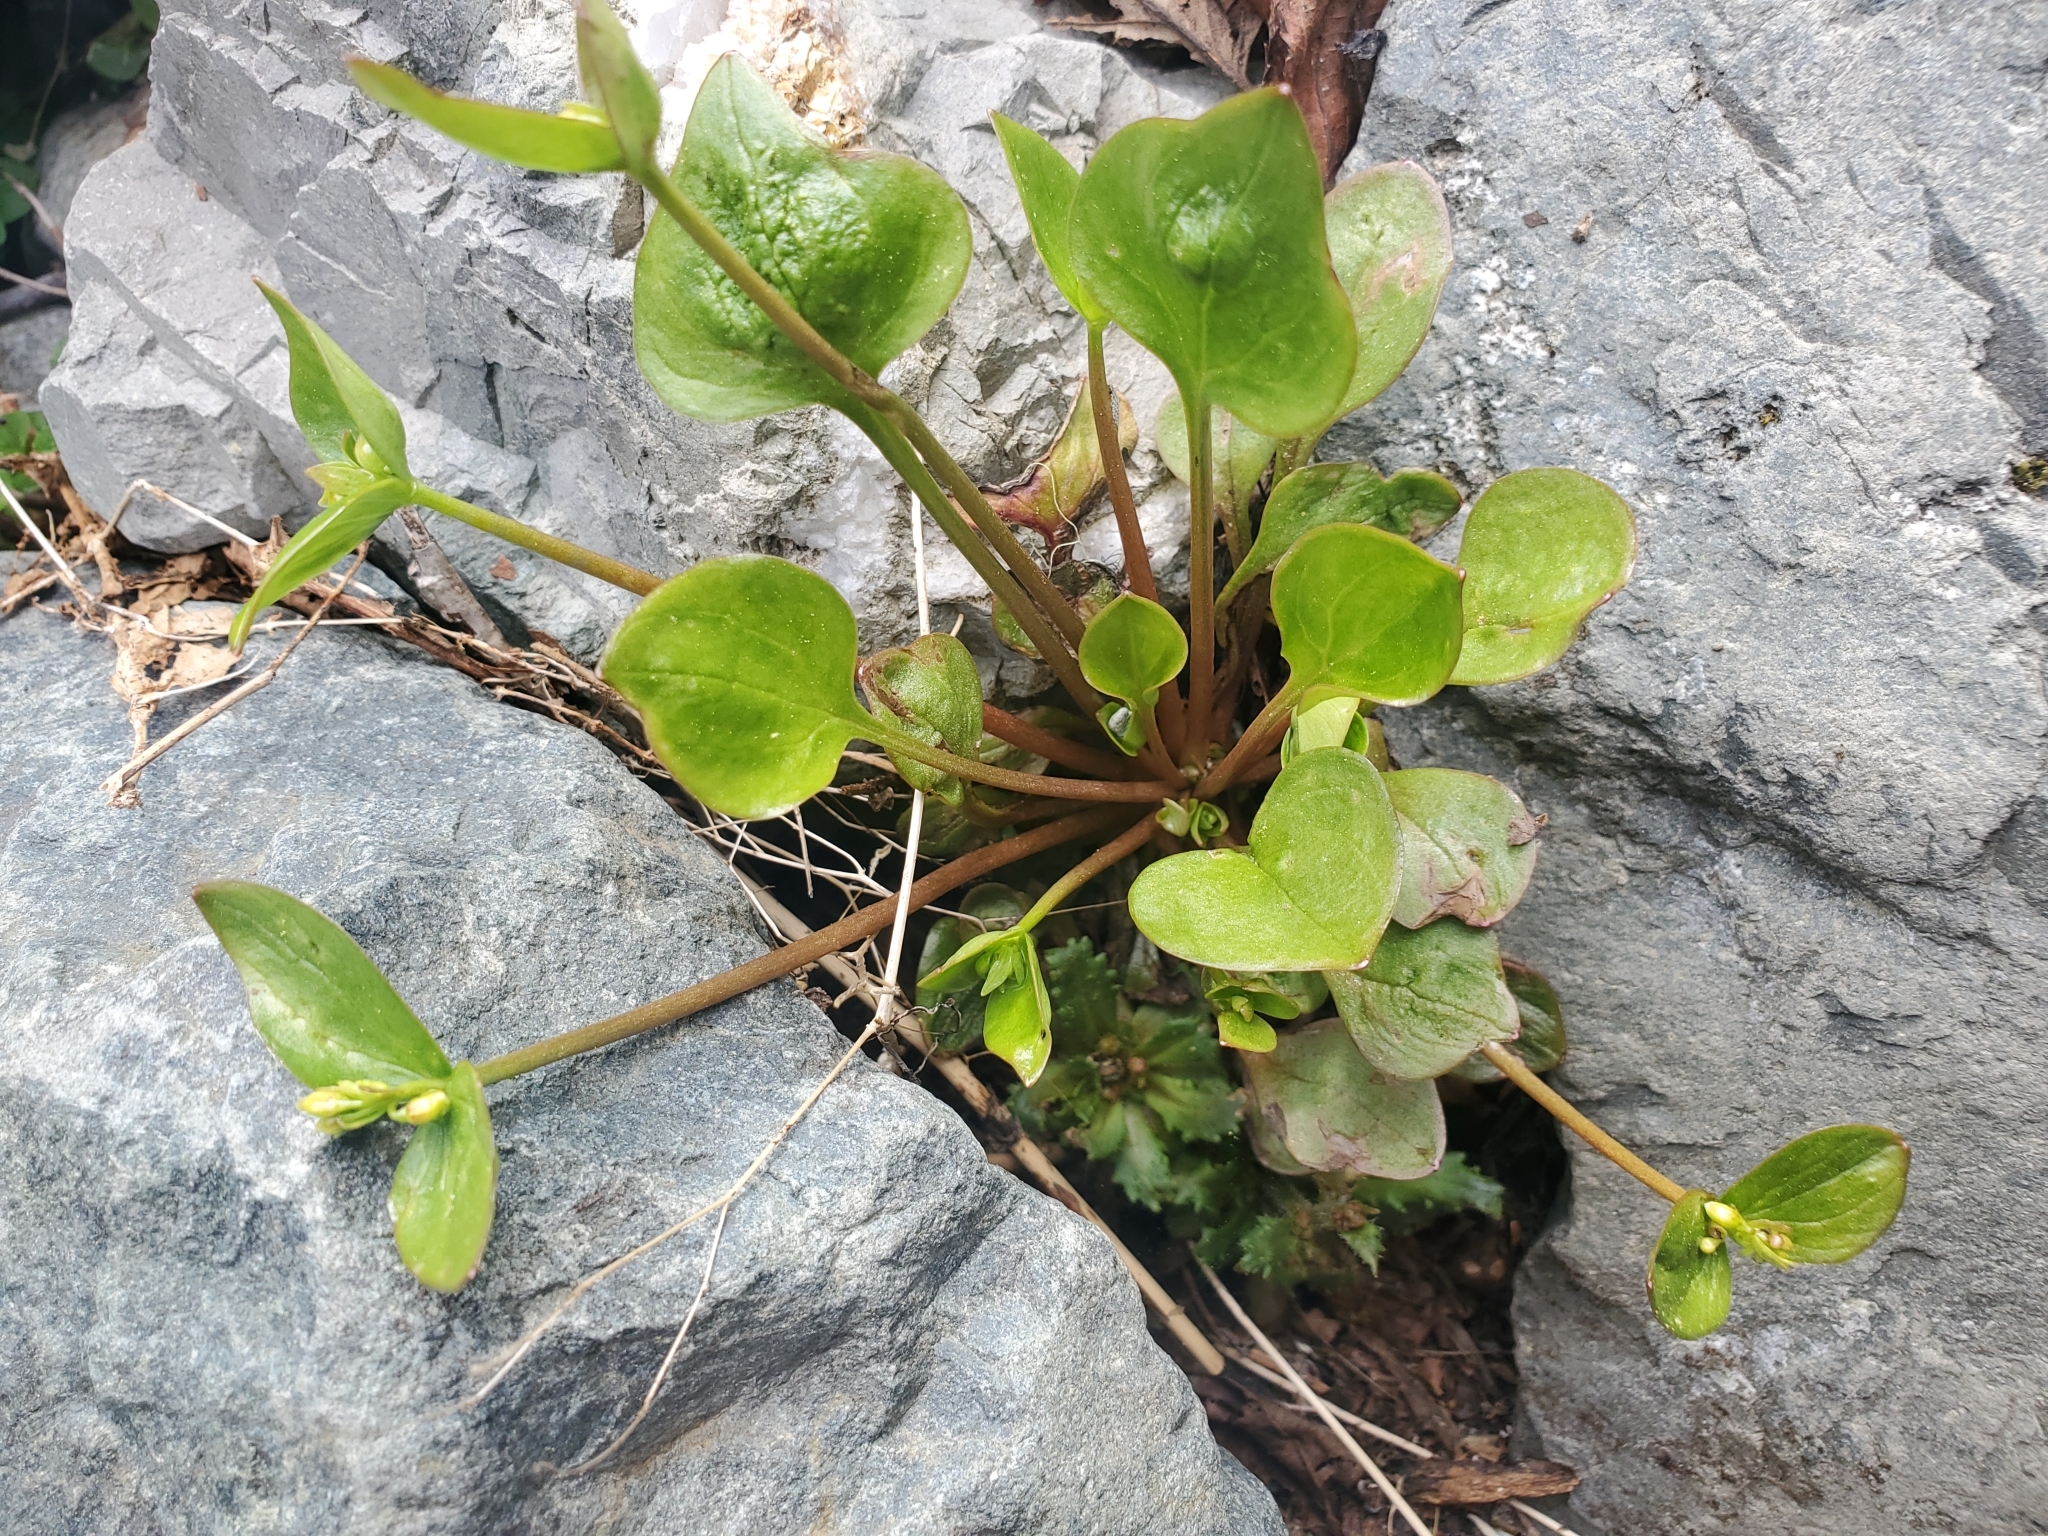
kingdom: Plantae
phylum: Tracheophyta
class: Magnoliopsida
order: Caryophyllales
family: Montiaceae
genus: Claytonia
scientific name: Claytonia sibirica
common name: Pink purslane
